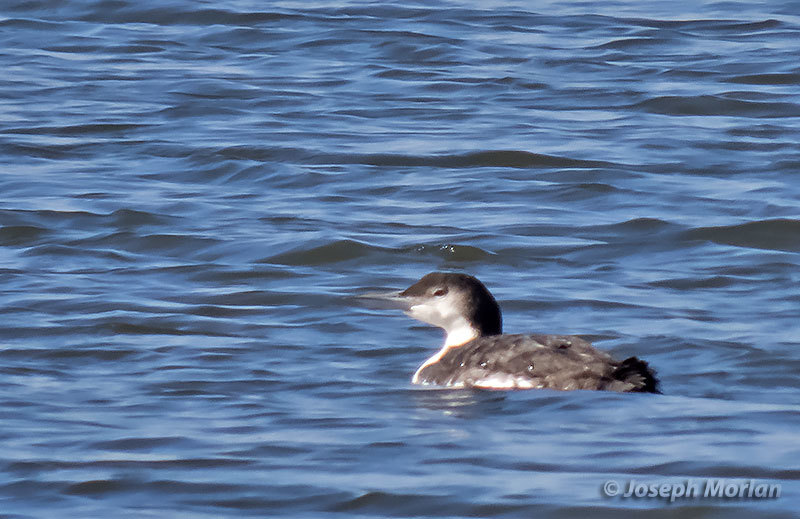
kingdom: Animalia
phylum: Chordata
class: Aves
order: Gaviiformes
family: Gaviidae
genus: Gavia
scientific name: Gavia immer
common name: Common loon
